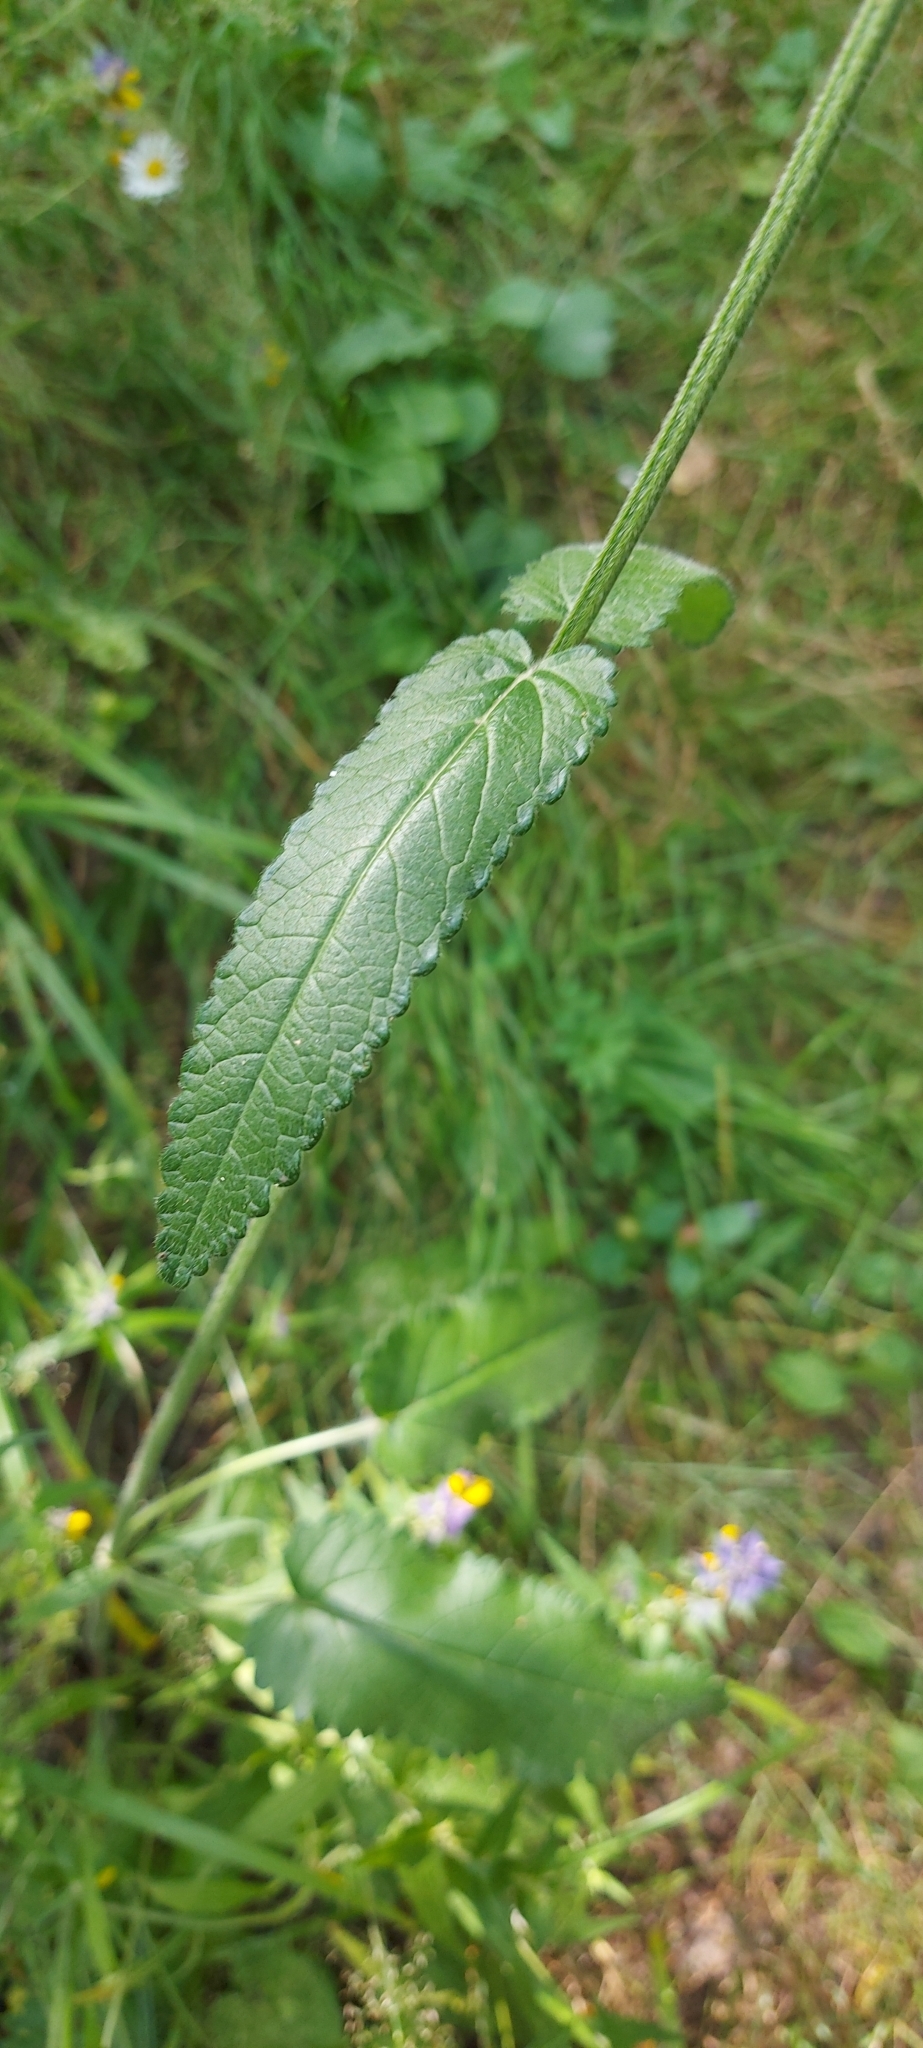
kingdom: Plantae
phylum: Tracheophyta
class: Magnoliopsida
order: Lamiales
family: Lamiaceae
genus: Betonica
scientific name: Betonica officinalis
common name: Bishop's-wort
